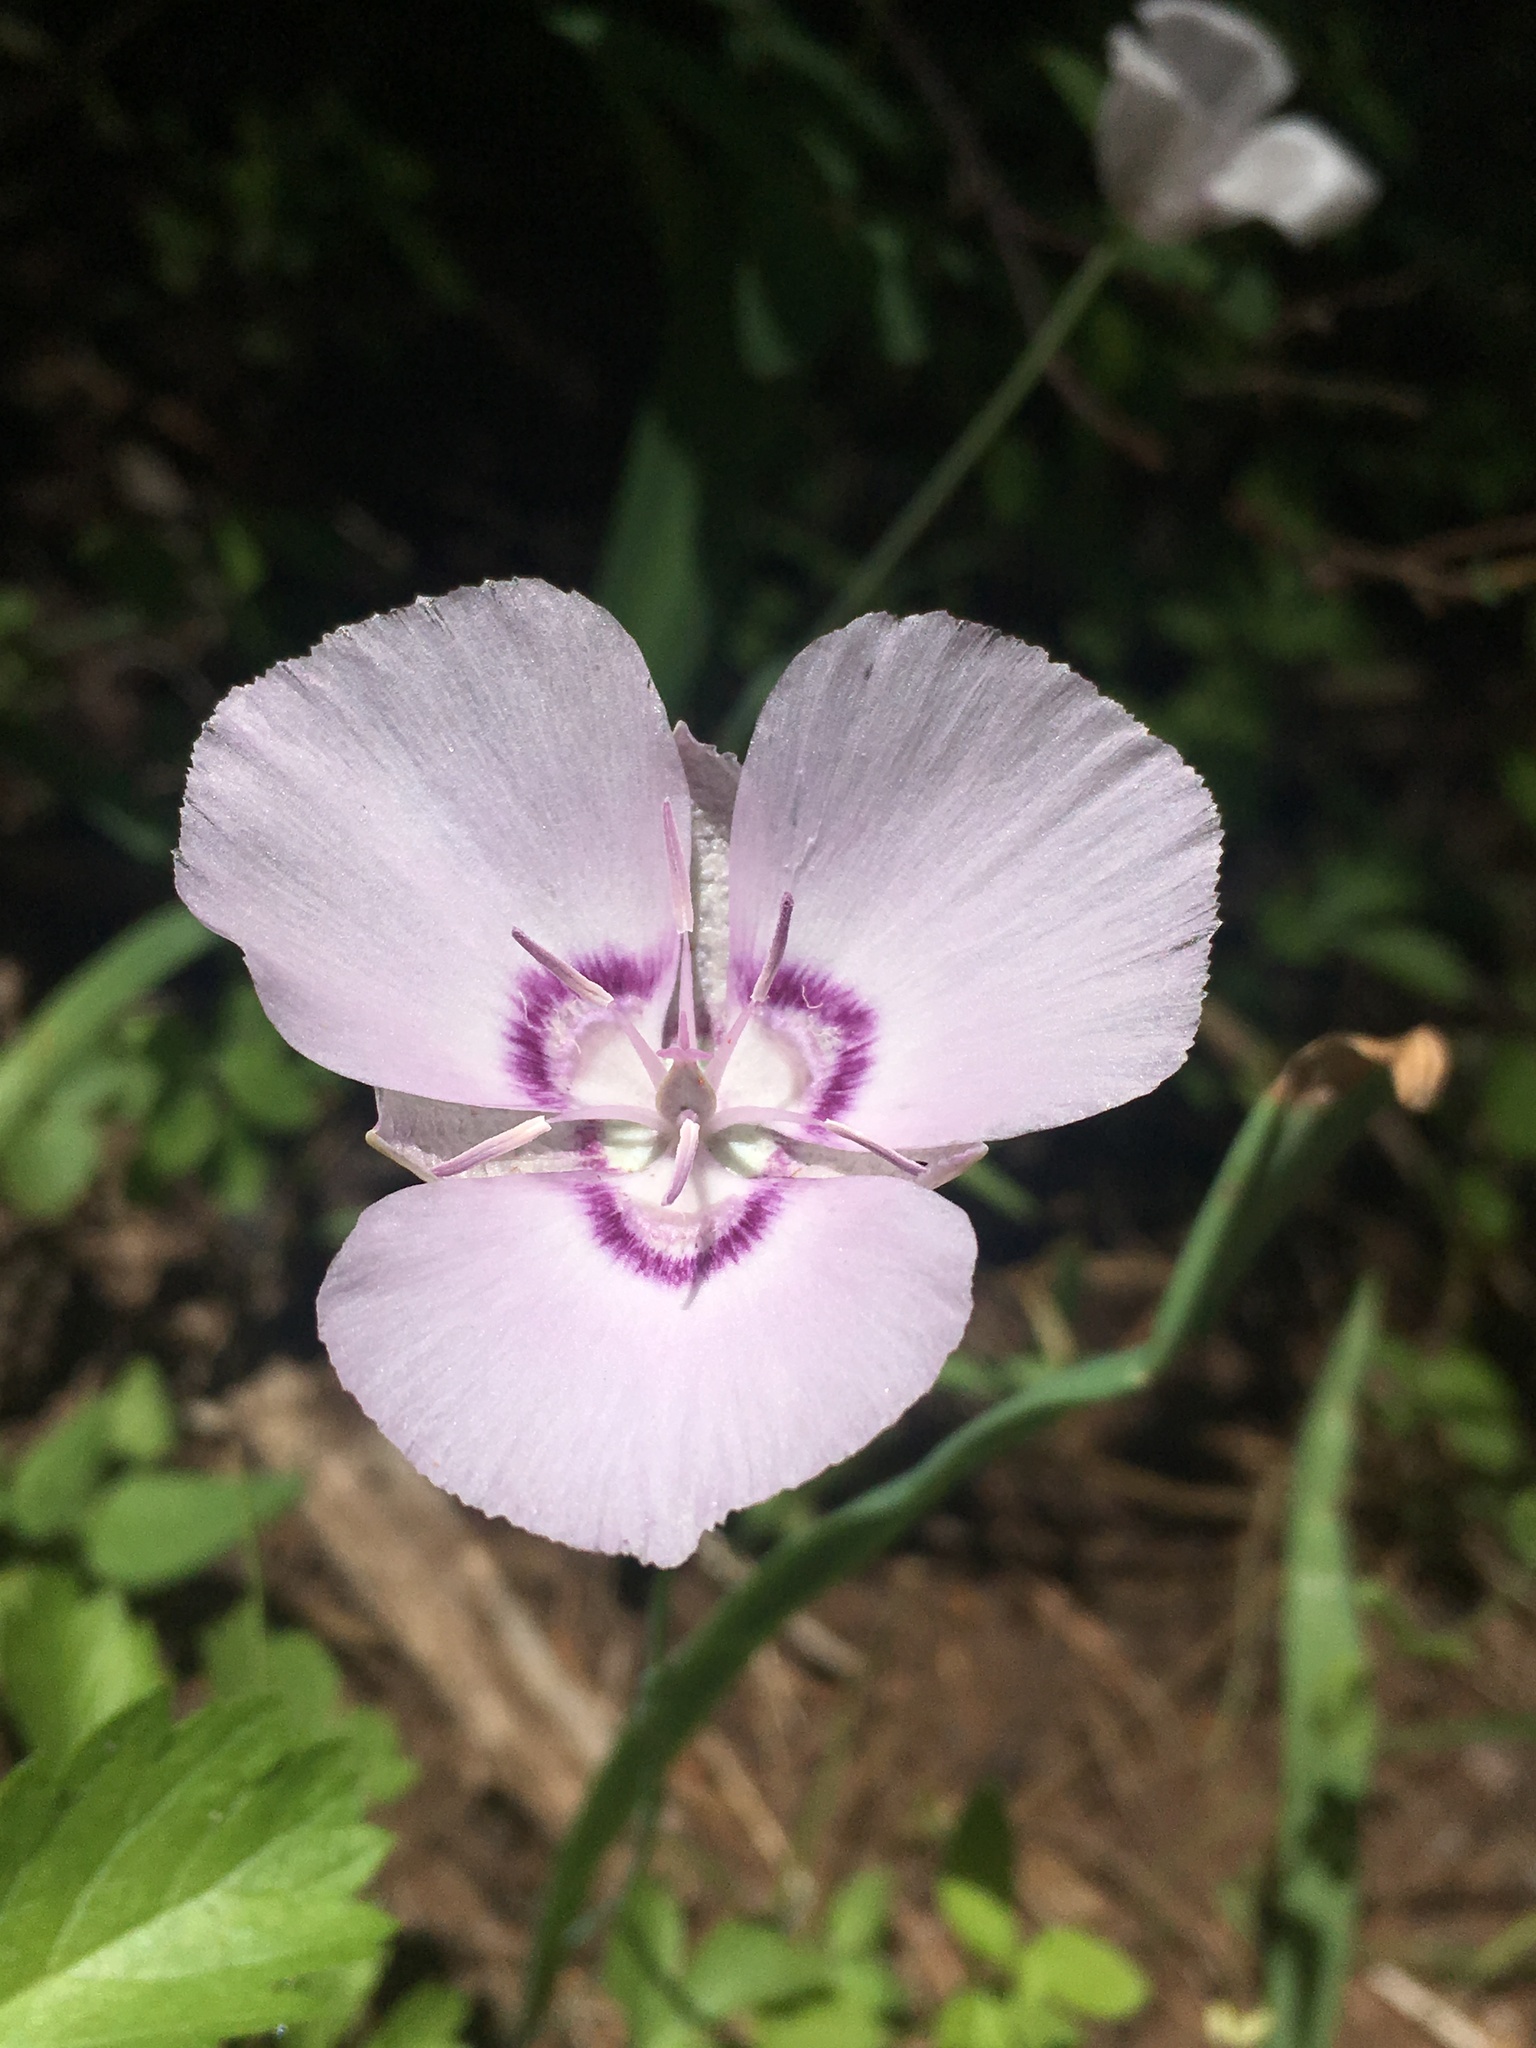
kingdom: Plantae
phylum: Tracheophyta
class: Liliopsida
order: Liliales
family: Liliaceae
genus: Calochortus
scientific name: Calochortus nudus
